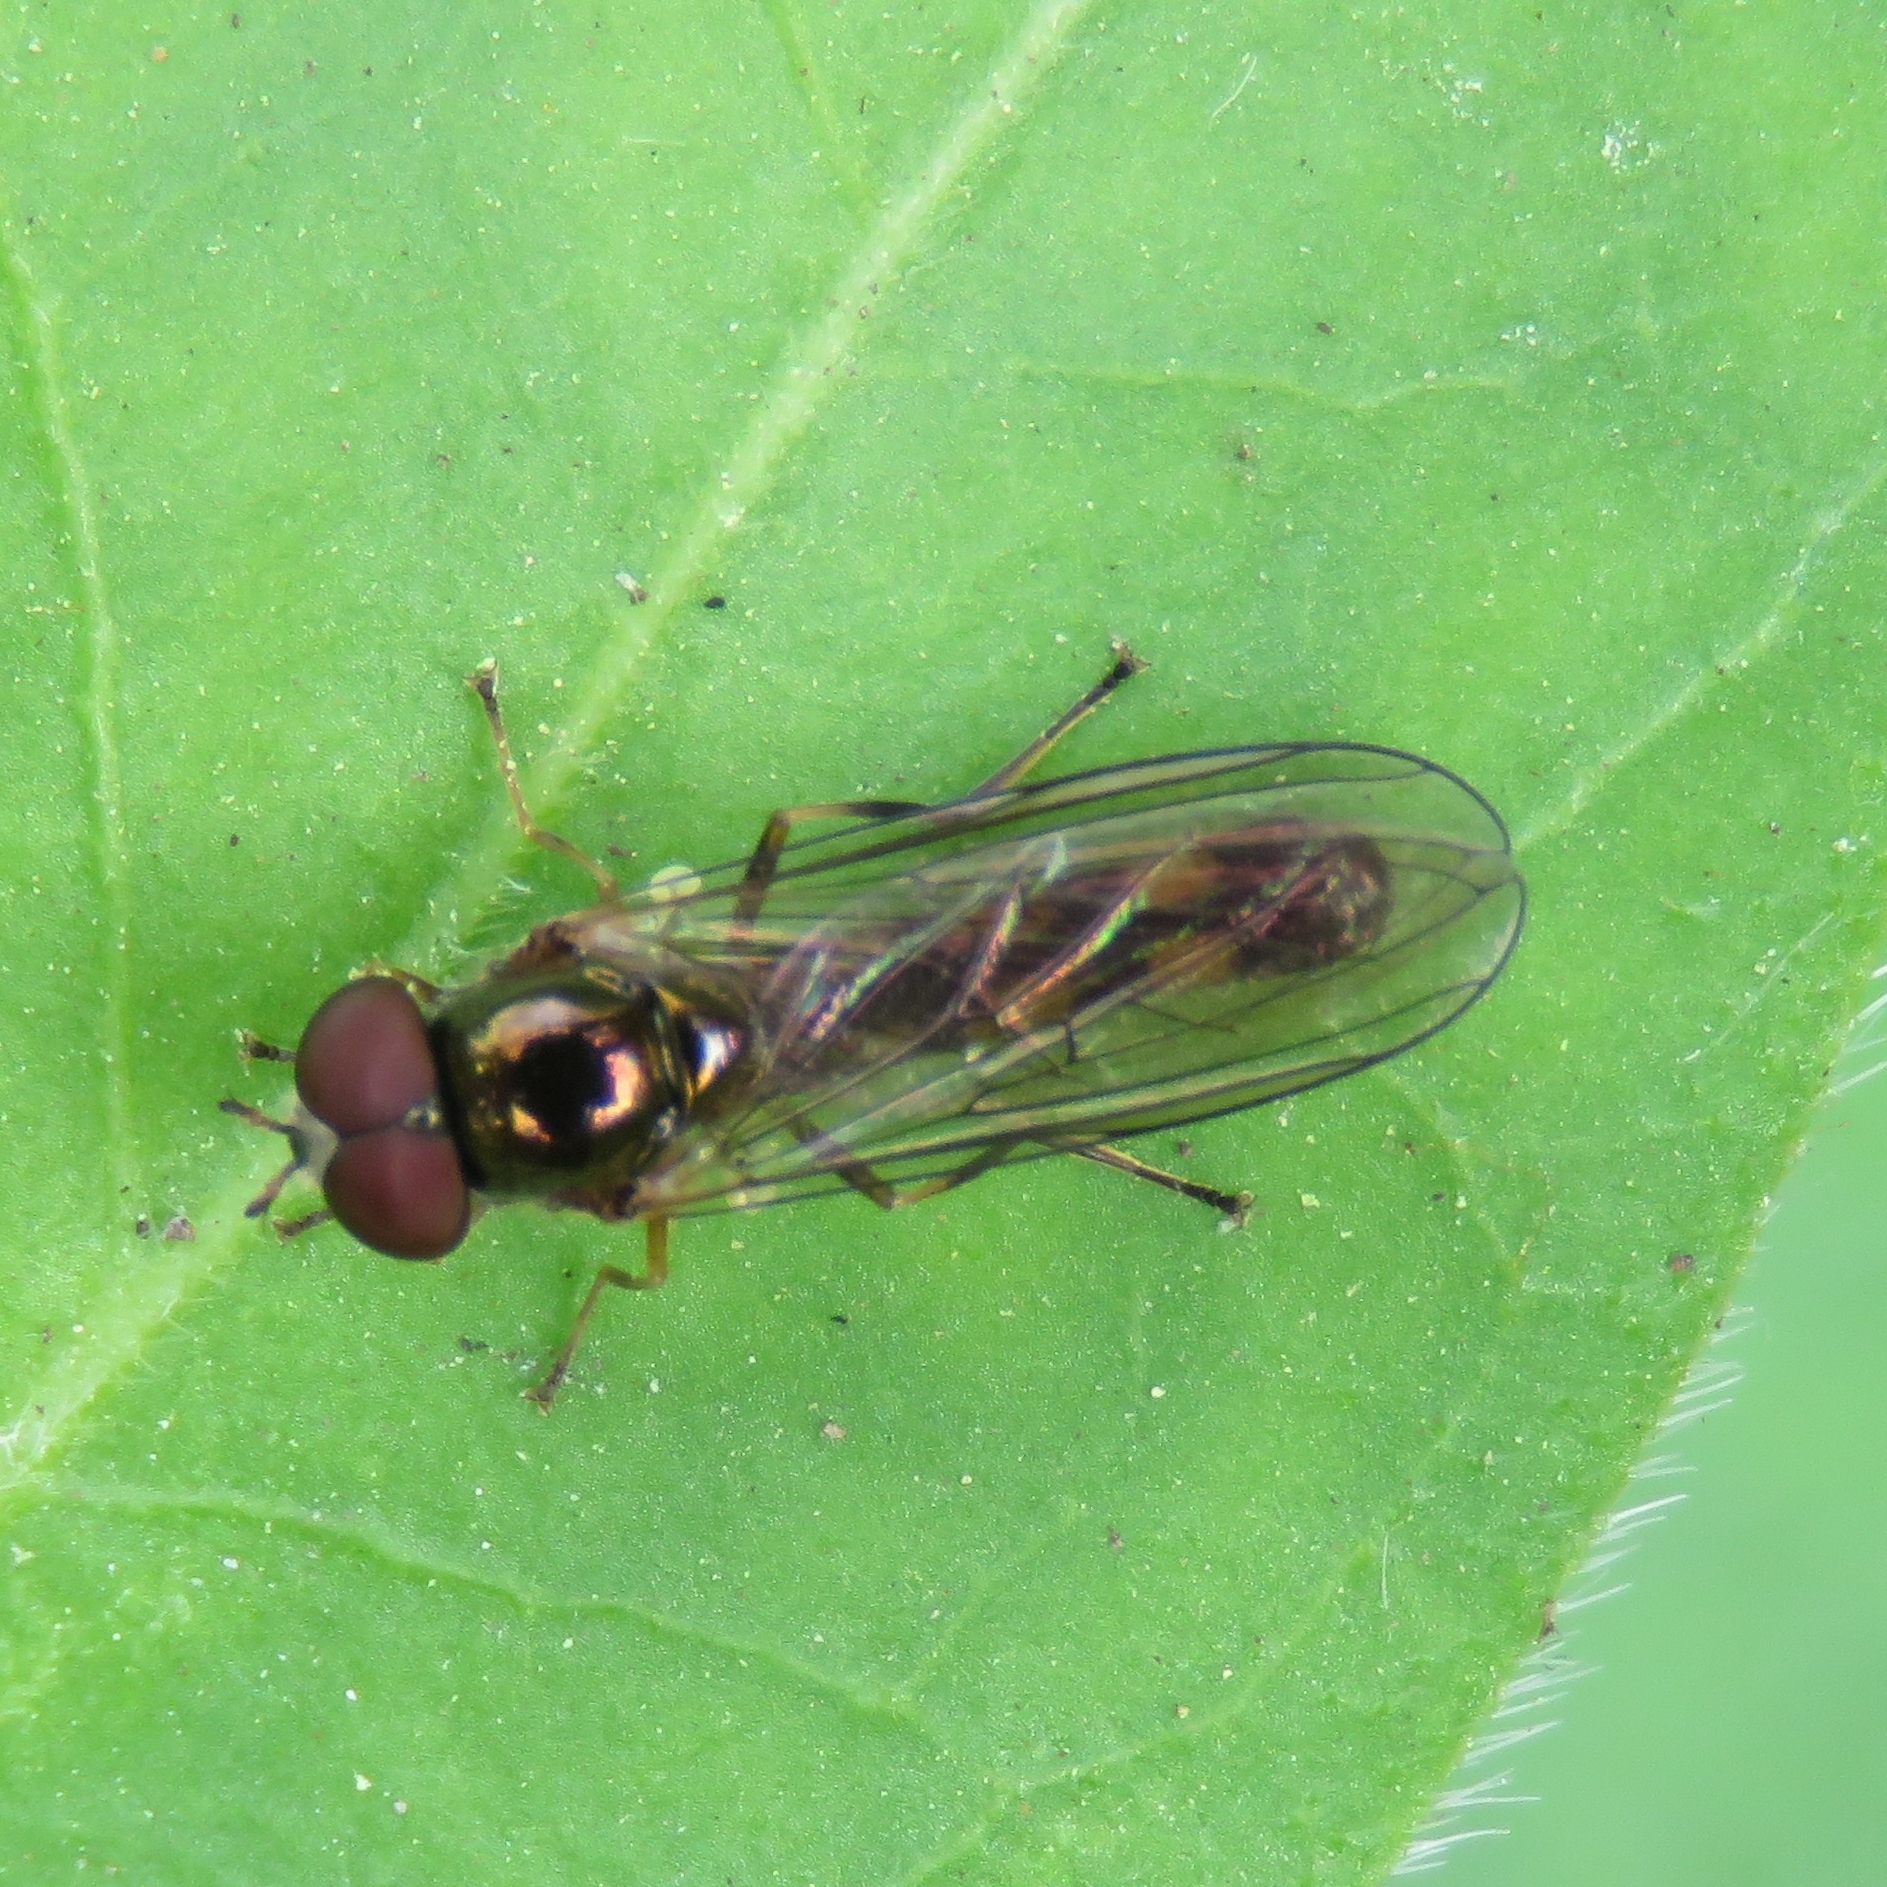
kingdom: Animalia
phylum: Arthropoda
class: Insecta
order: Diptera
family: Syrphidae
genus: Melanostoma
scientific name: Melanostoma scalare
